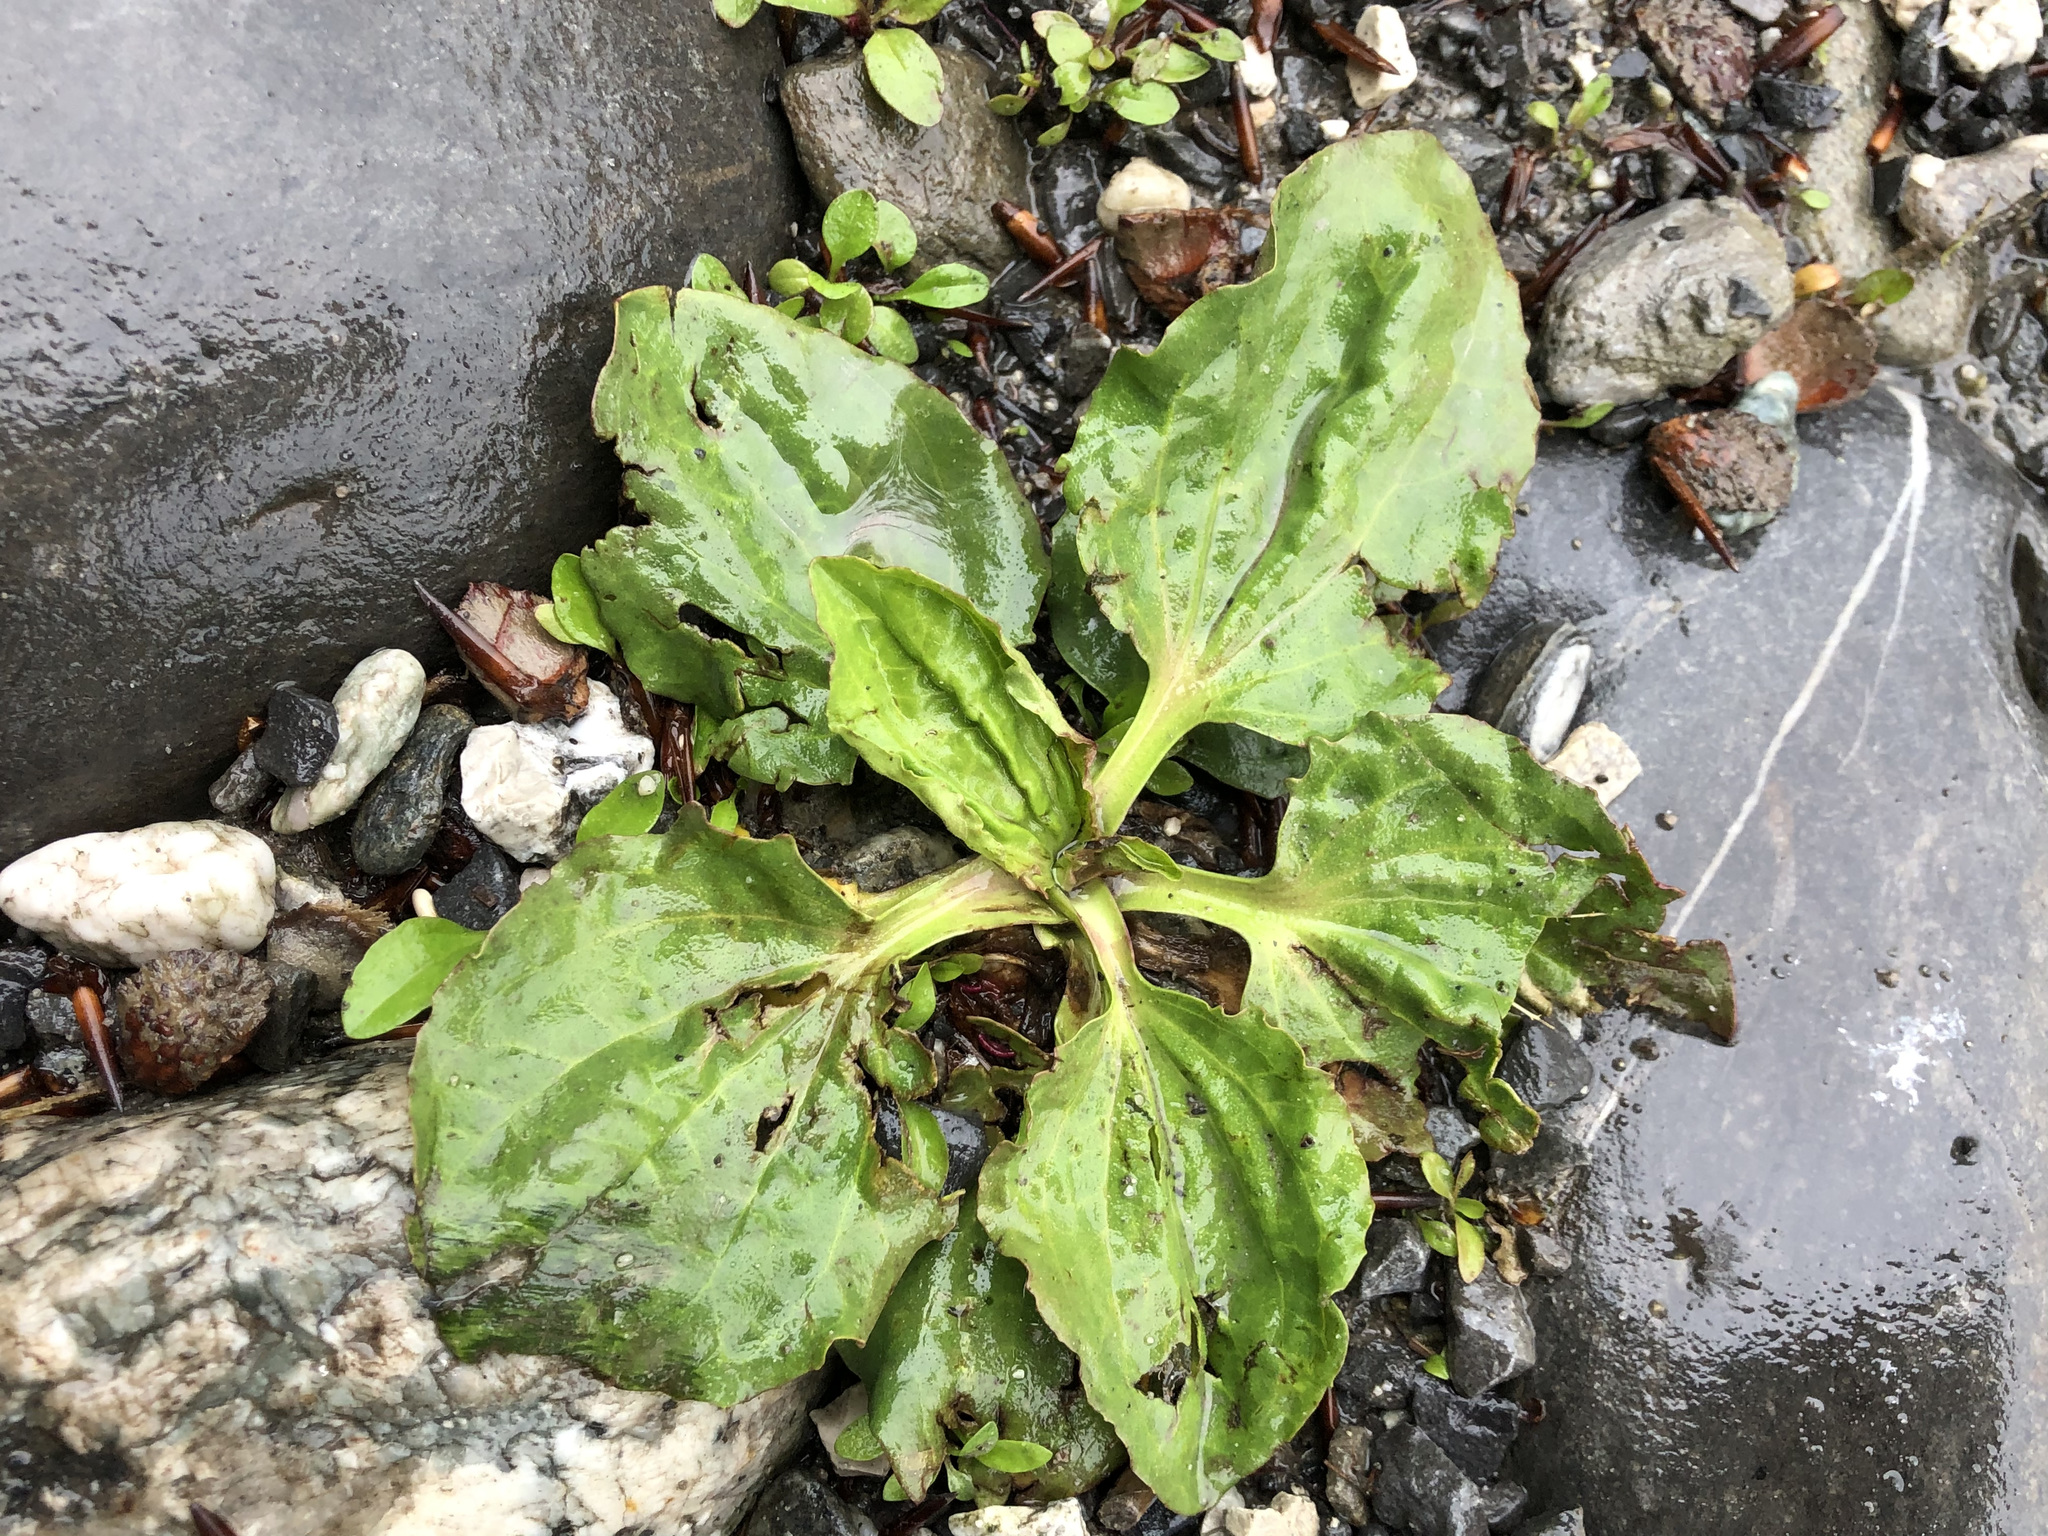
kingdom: Plantae
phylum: Tracheophyta
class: Magnoliopsida
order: Lamiales
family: Plantaginaceae
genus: Plantago
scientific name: Plantago major
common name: Common plantain
